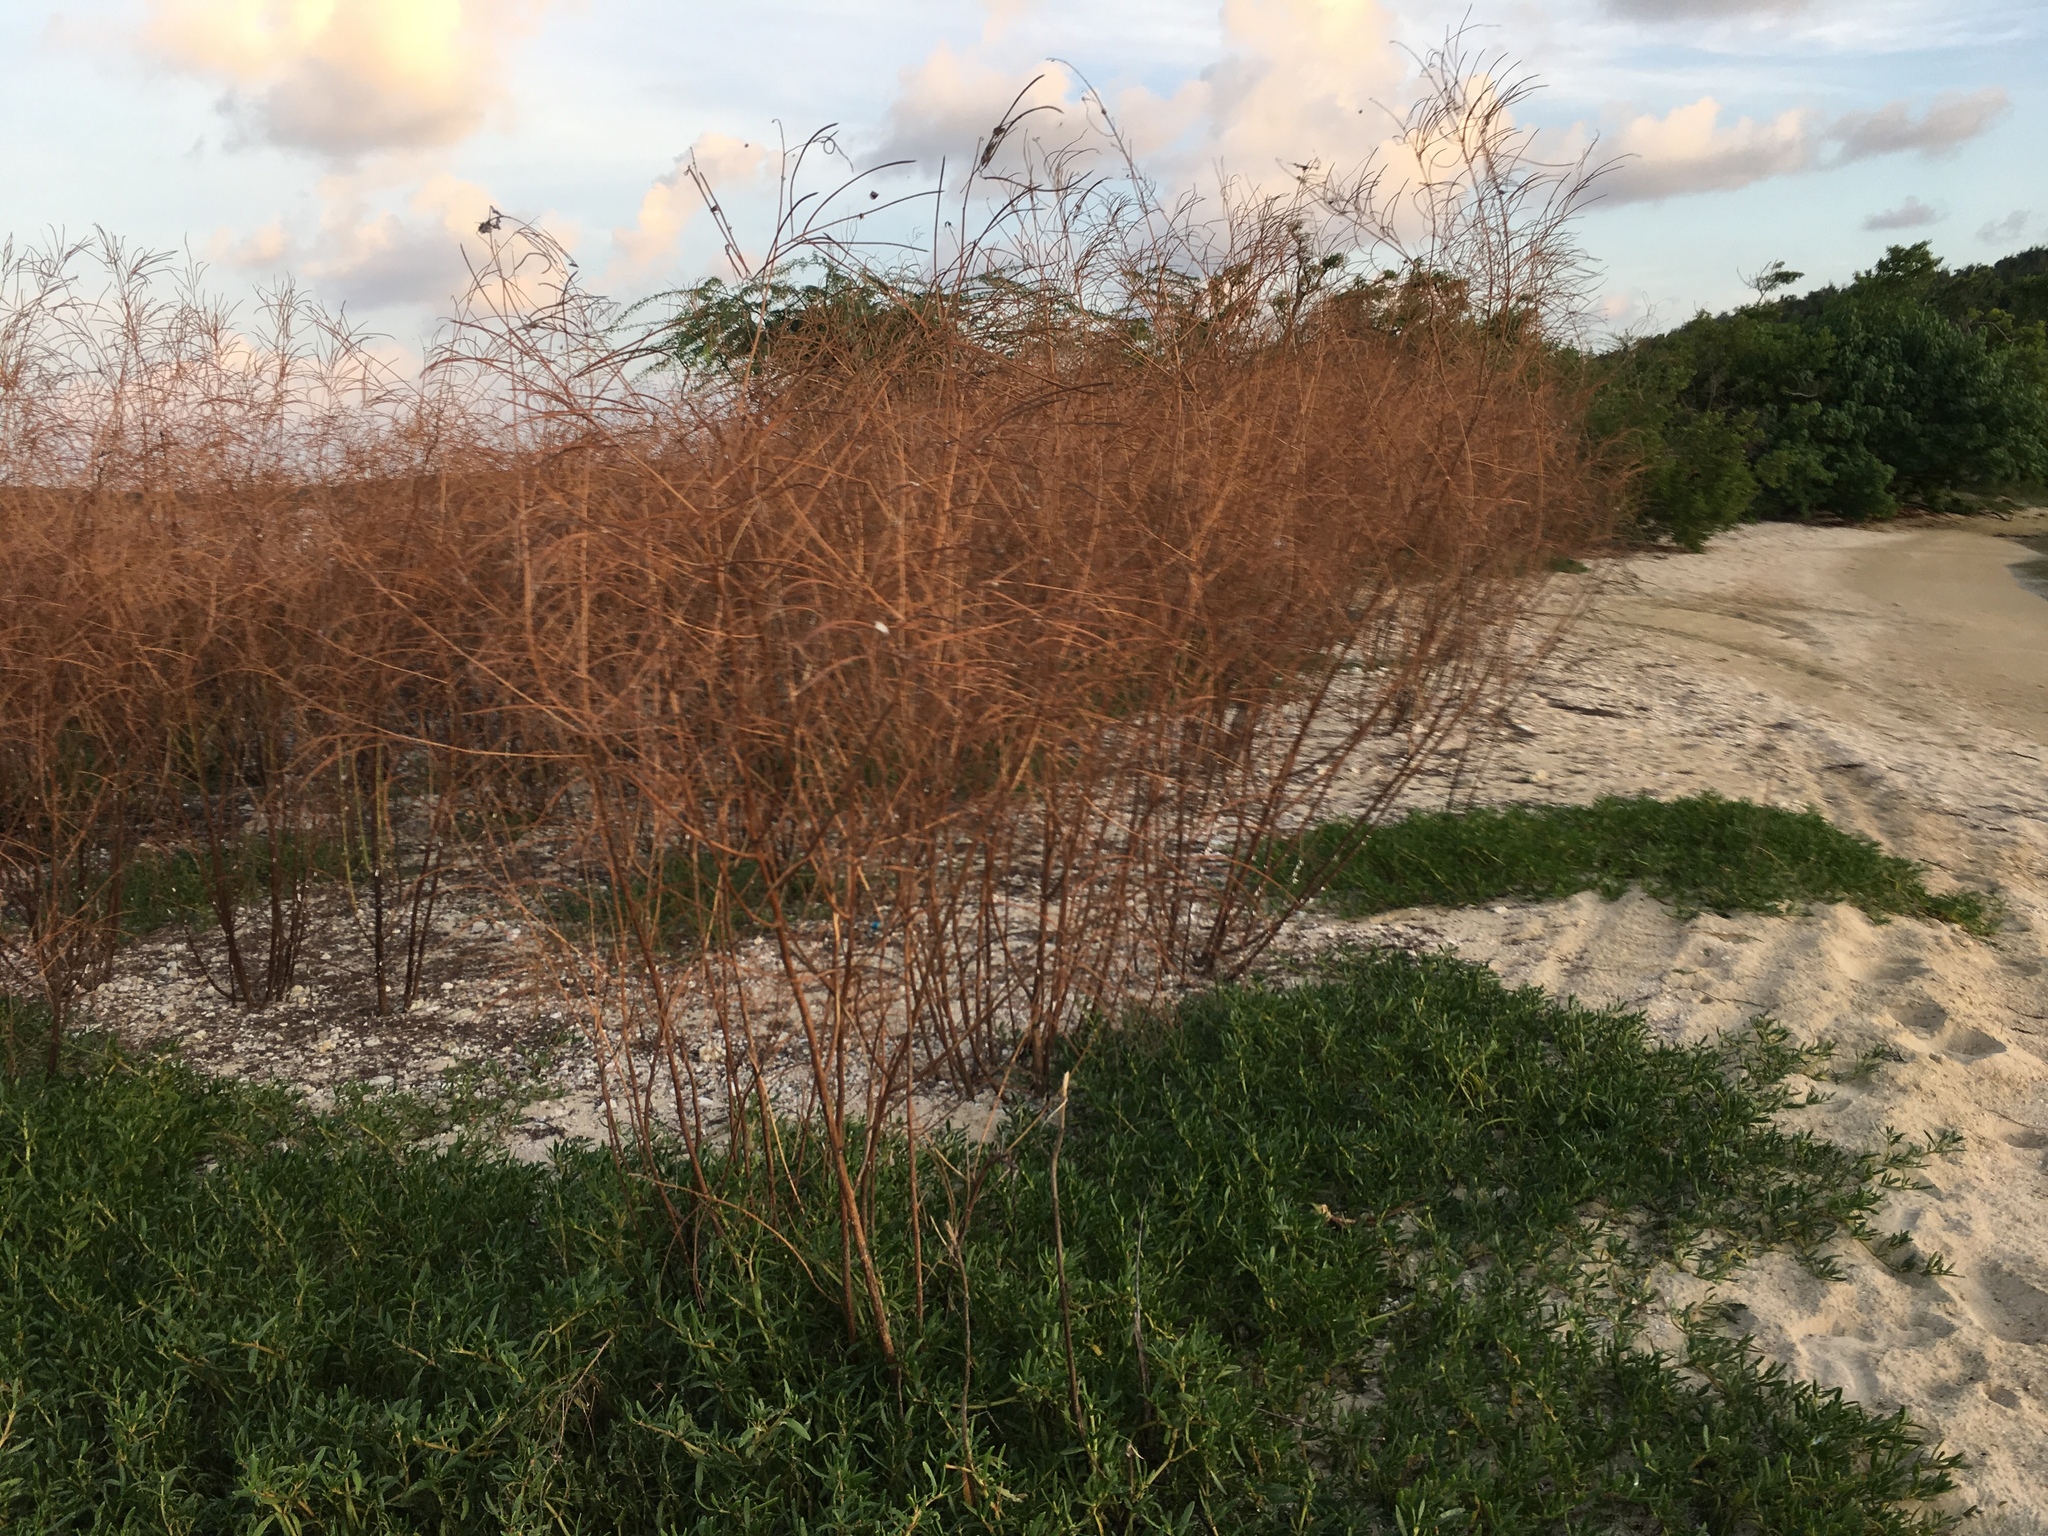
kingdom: Plantae
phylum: Tracheophyta
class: Magnoliopsida
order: Fabales
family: Fabaceae
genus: Sesbania
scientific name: Sesbania sericea
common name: Papagayo
